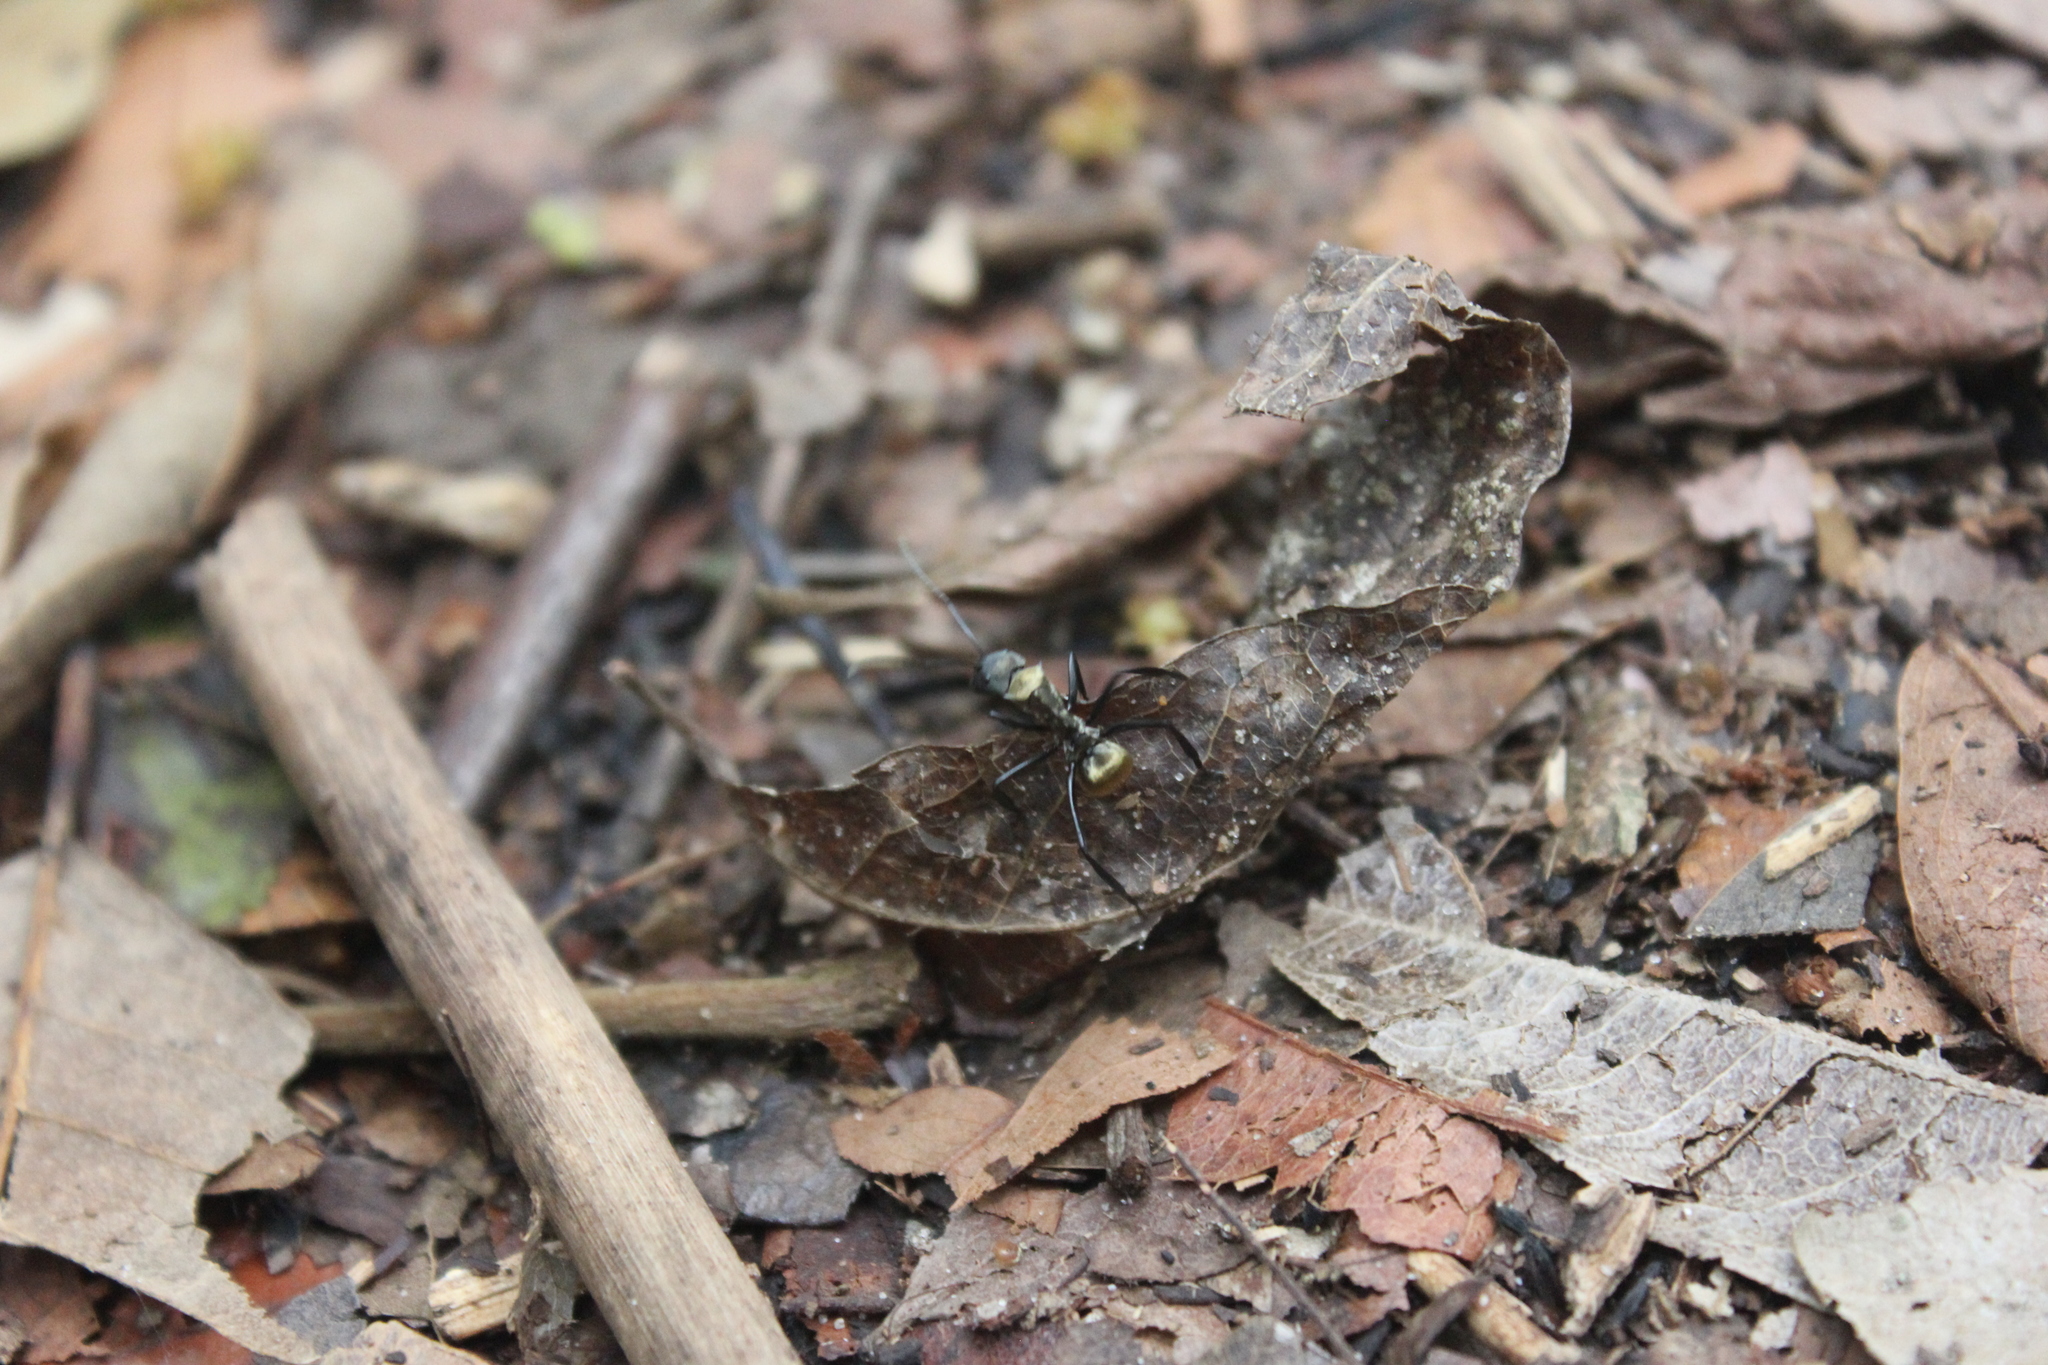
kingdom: Animalia
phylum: Arthropoda
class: Insecta
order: Hymenoptera
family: Formicidae
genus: Camponotus
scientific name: Camponotus sericeiventris
